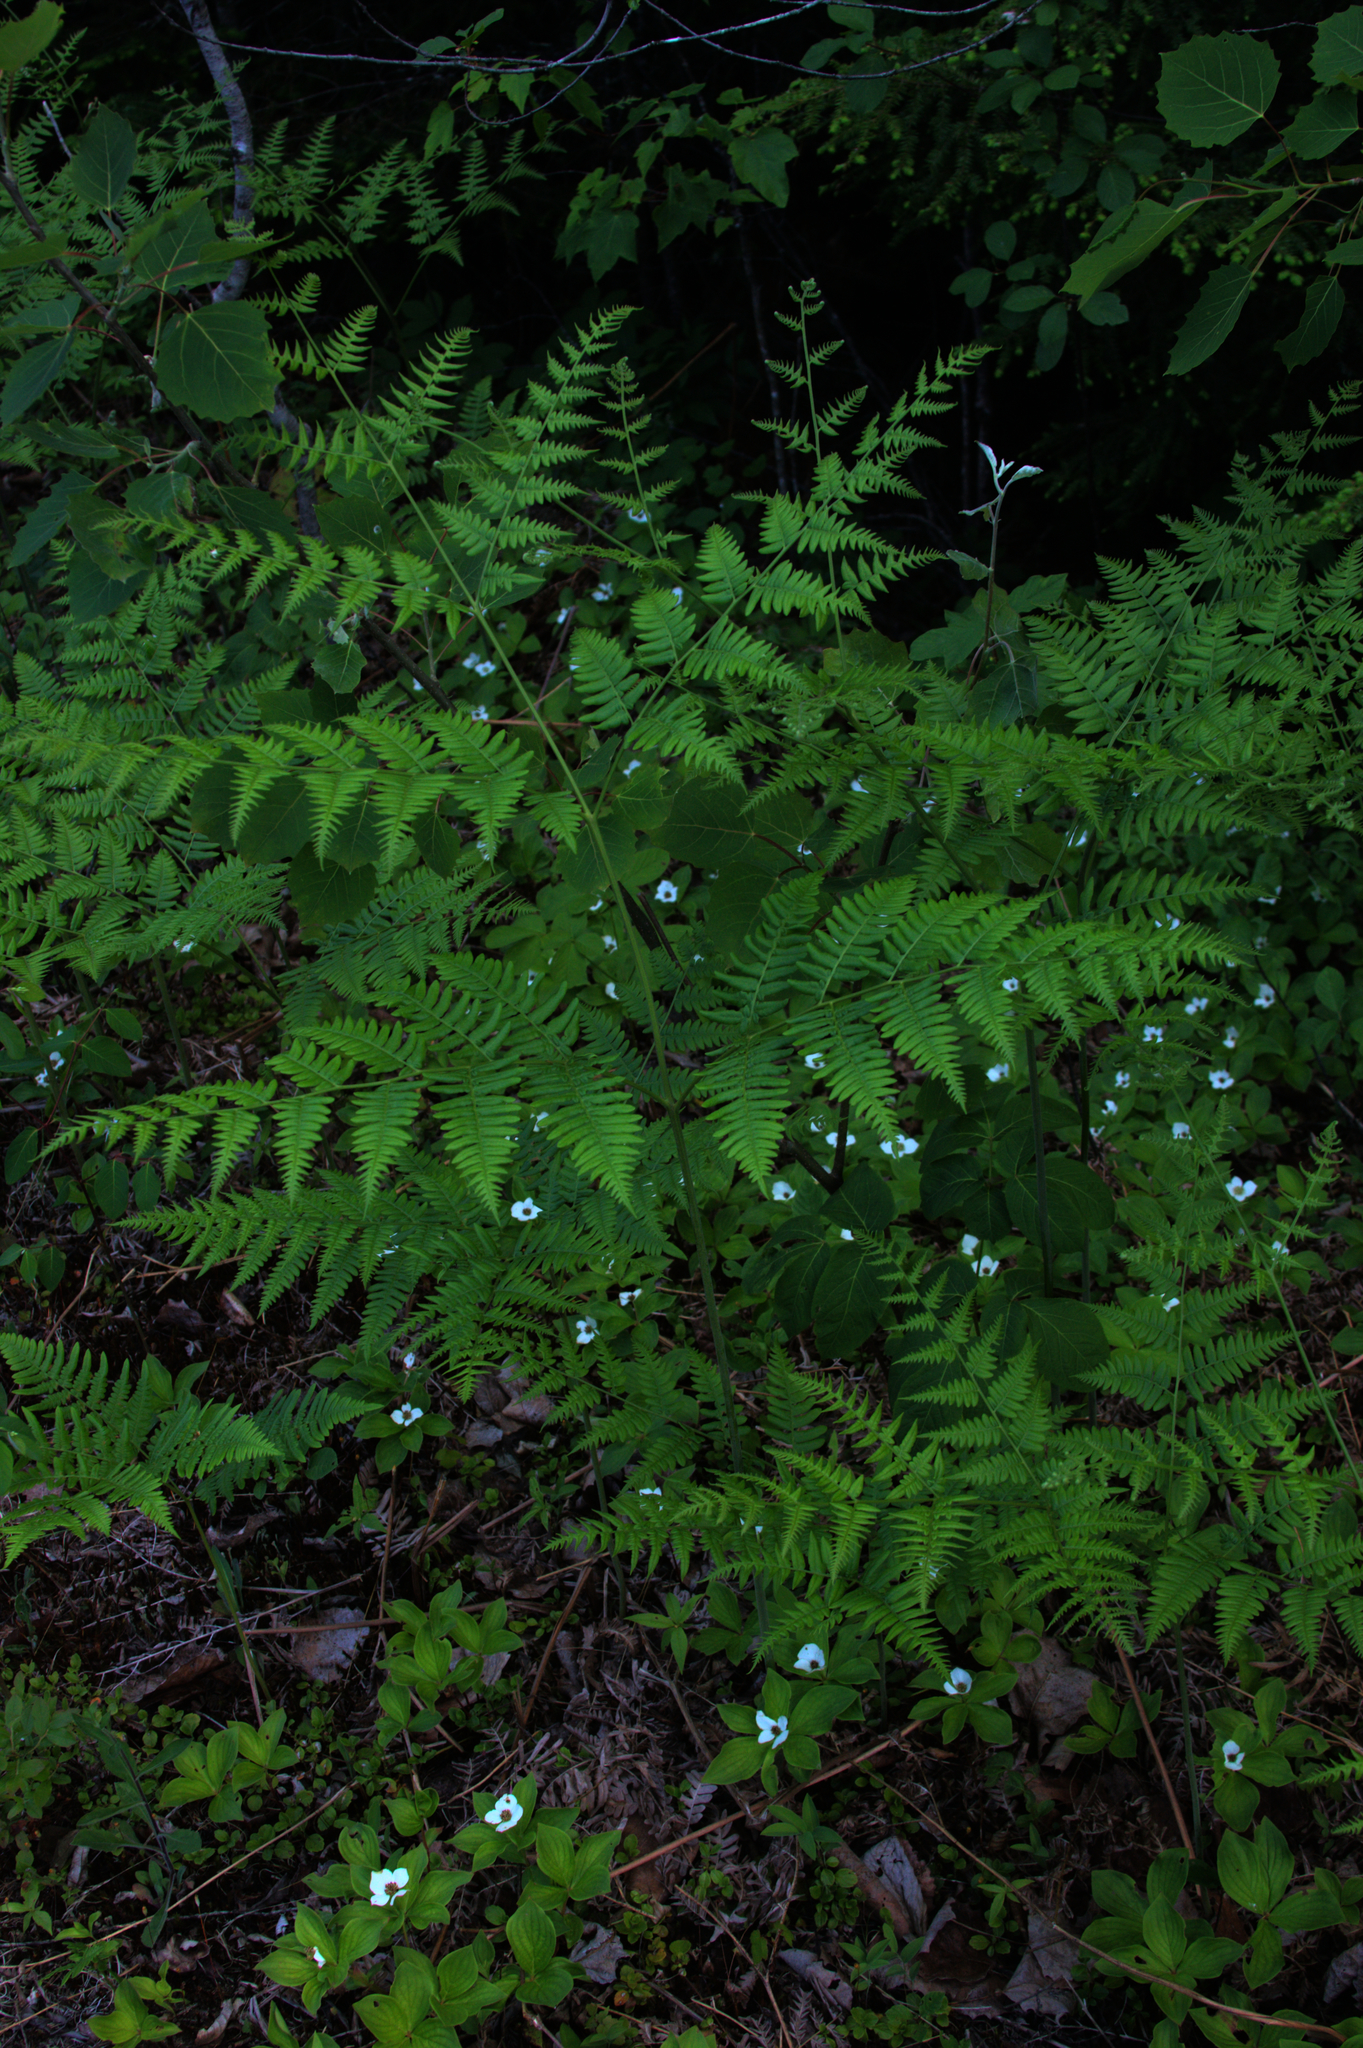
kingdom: Plantae
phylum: Tracheophyta
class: Polypodiopsida
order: Polypodiales
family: Dennstaedtiaceae
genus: Pteridium
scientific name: Pteridium aquilinum
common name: Bracken
